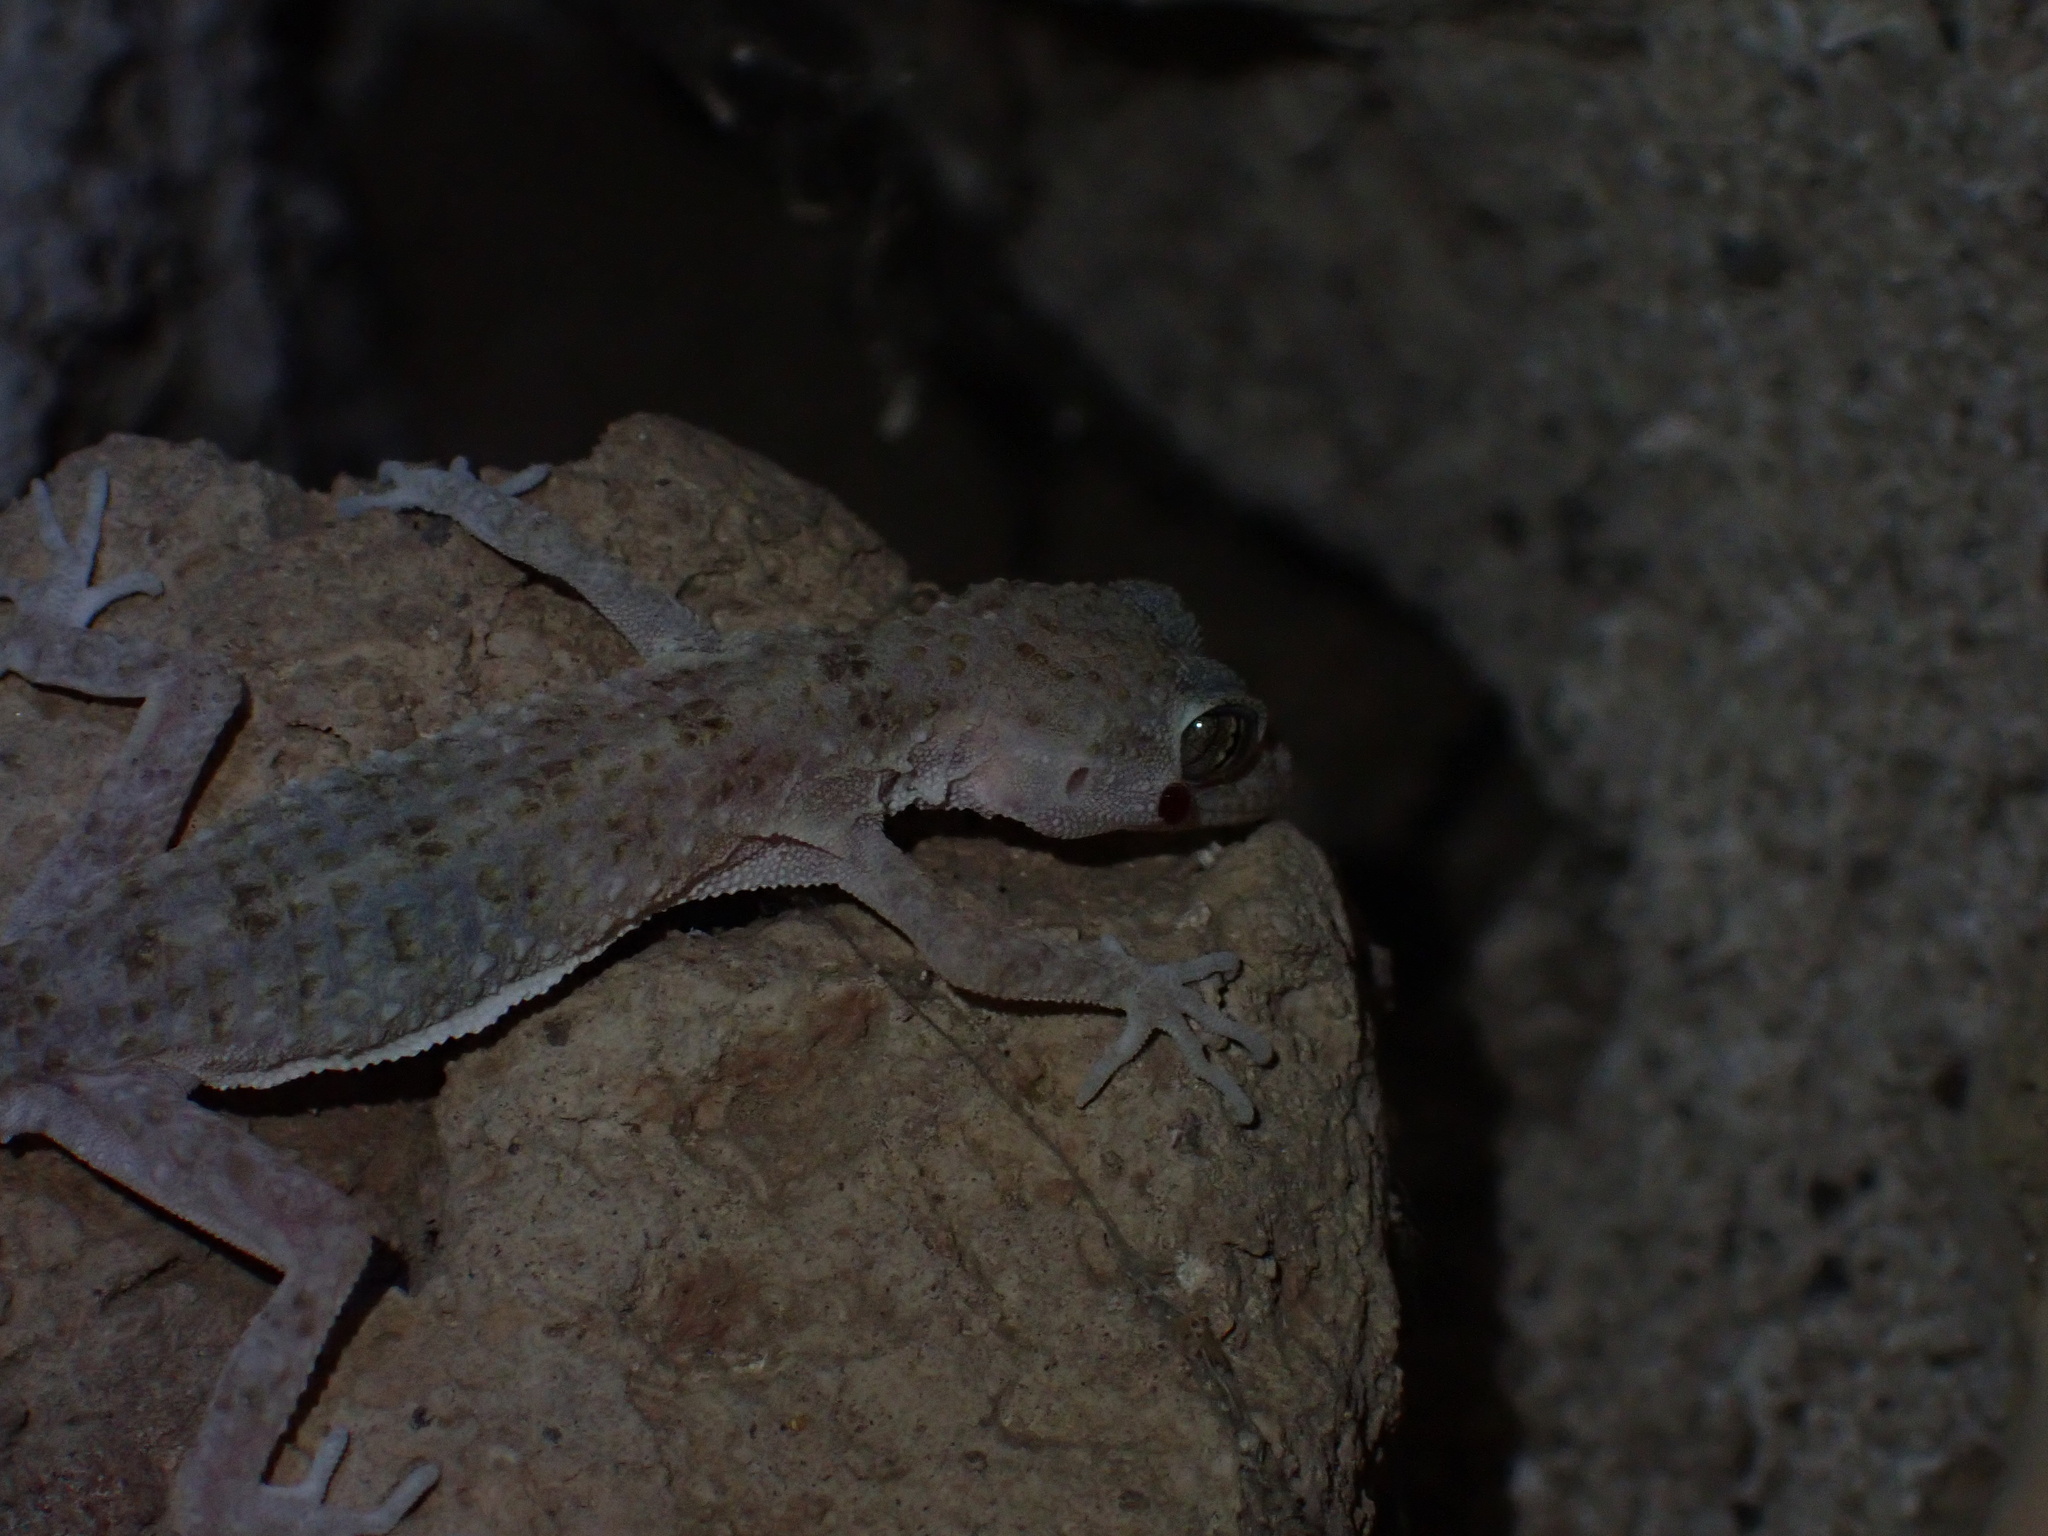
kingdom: Animalia
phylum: Chordata
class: Squamata
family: Gekkonidae
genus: Cyrtopodion
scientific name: Cyrtopodion scabrum
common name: Rough-tailed gecko
